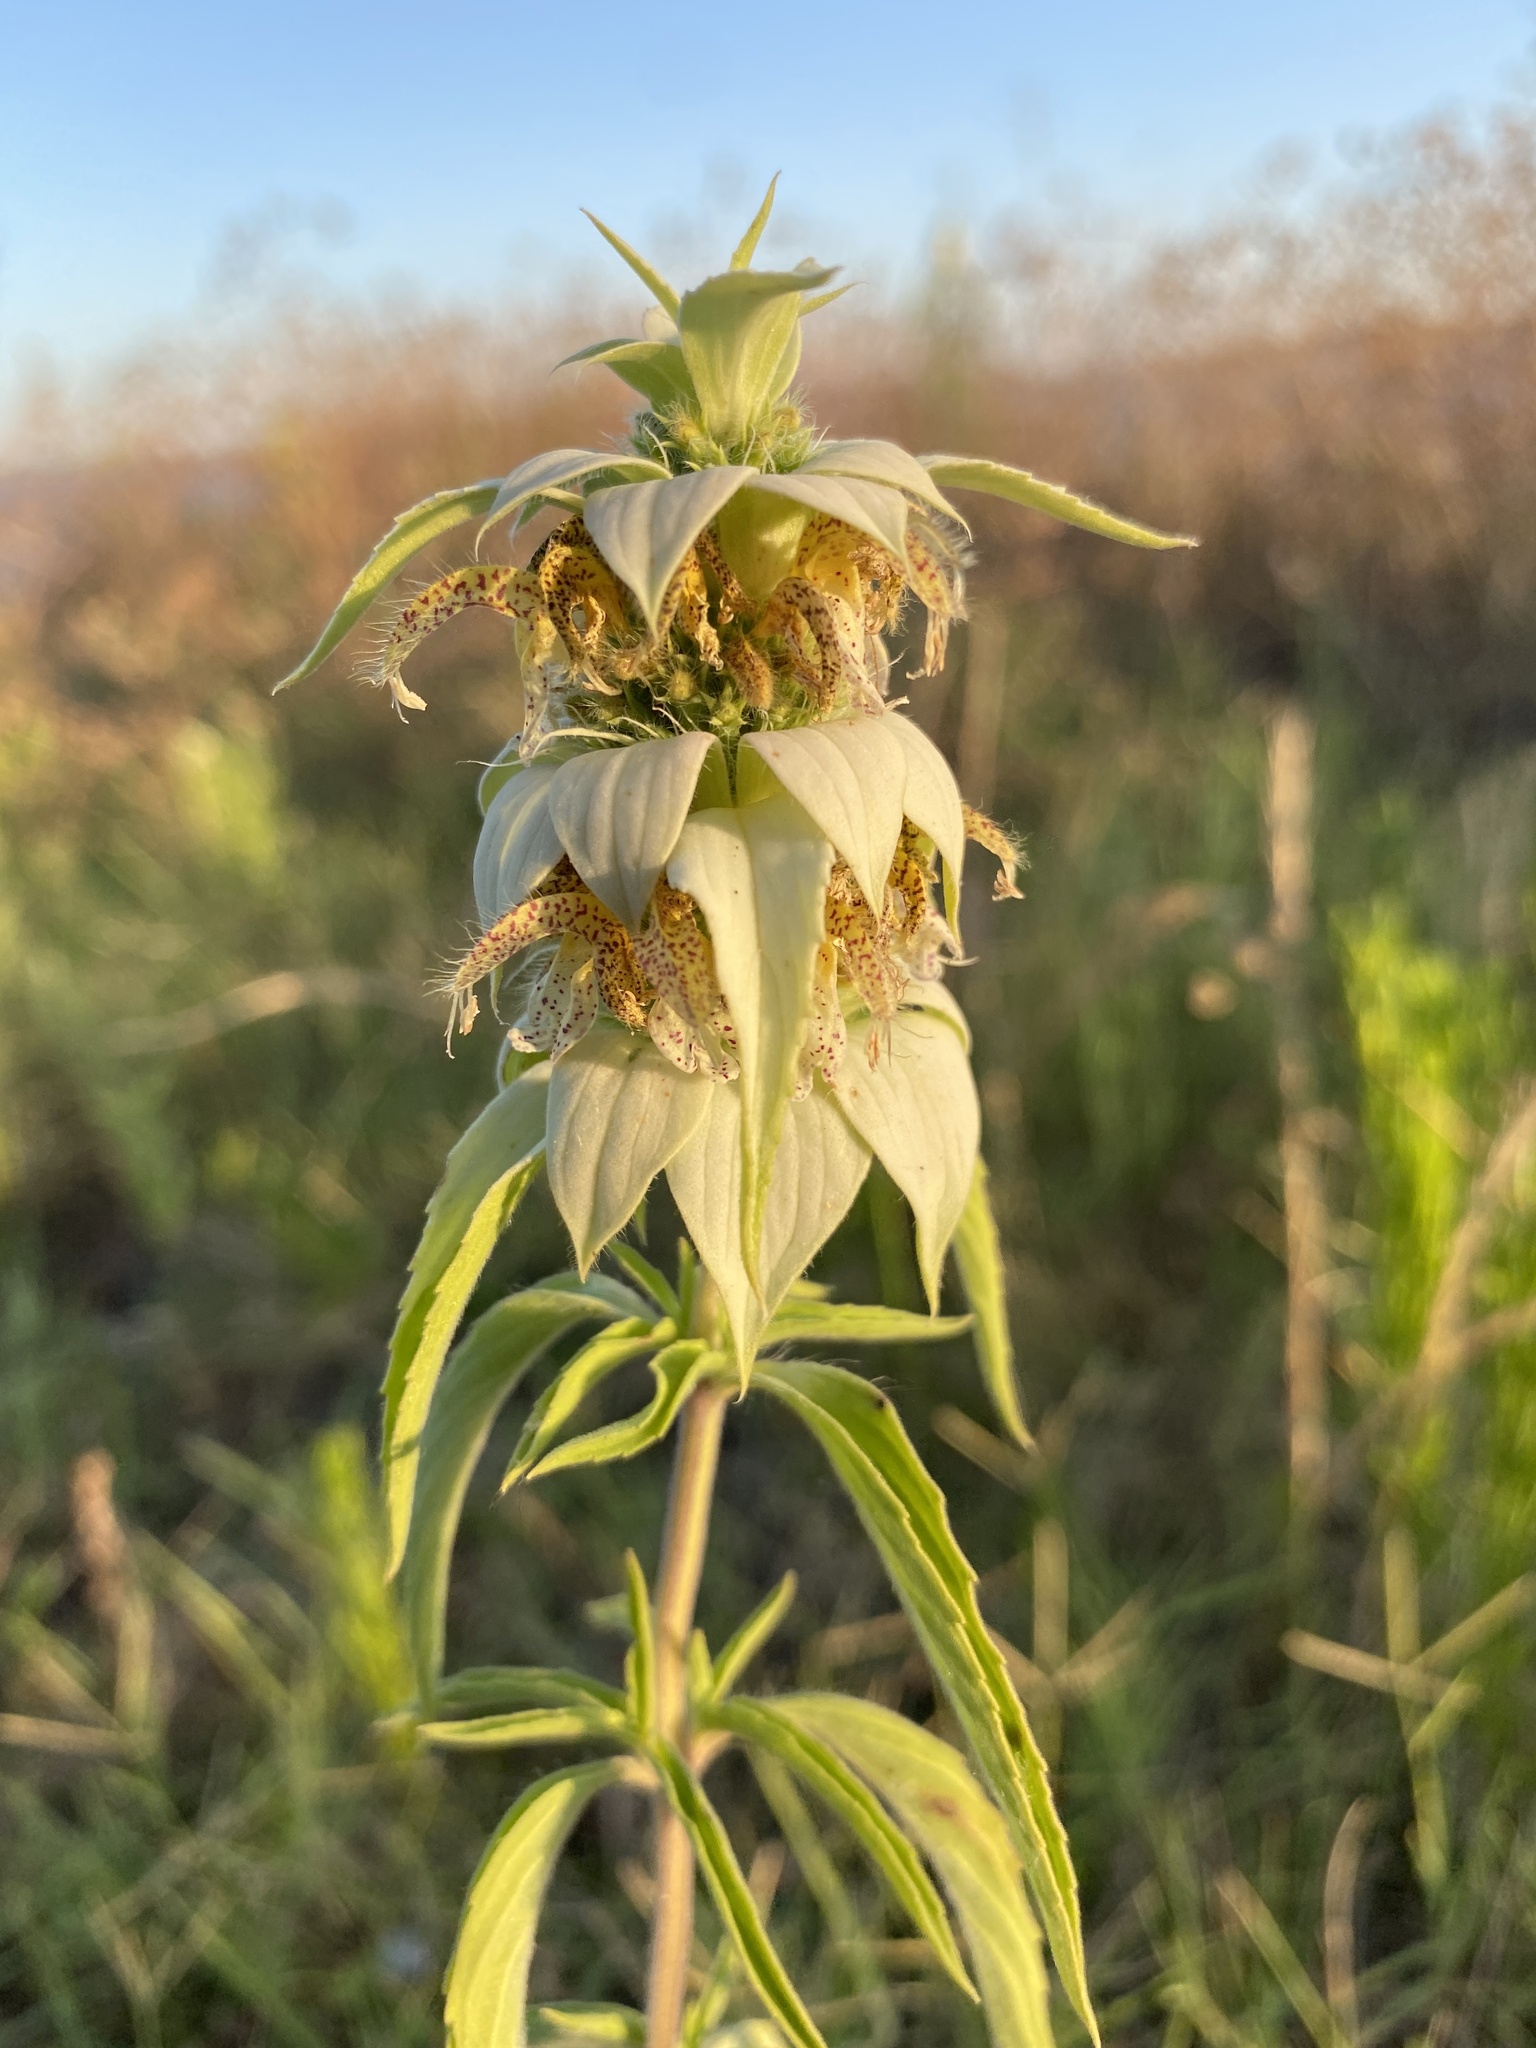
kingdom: Plantae
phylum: Tracheophyta
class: Magnoliopsida
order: Lamiales
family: Lamiaceae
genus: Monarda
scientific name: Monarda punctata
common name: Dotted monarda
